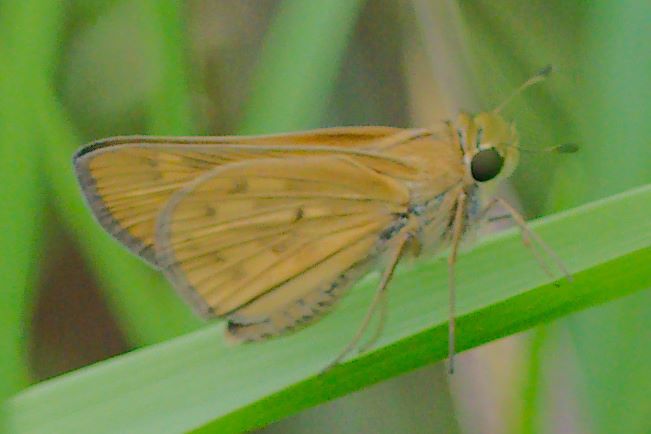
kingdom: Animalia
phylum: Arthropoda
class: Insecta
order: Lepidoptera
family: Hesperiidae
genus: Hylephila
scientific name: Hylephila phyleus
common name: Fiery skipper
